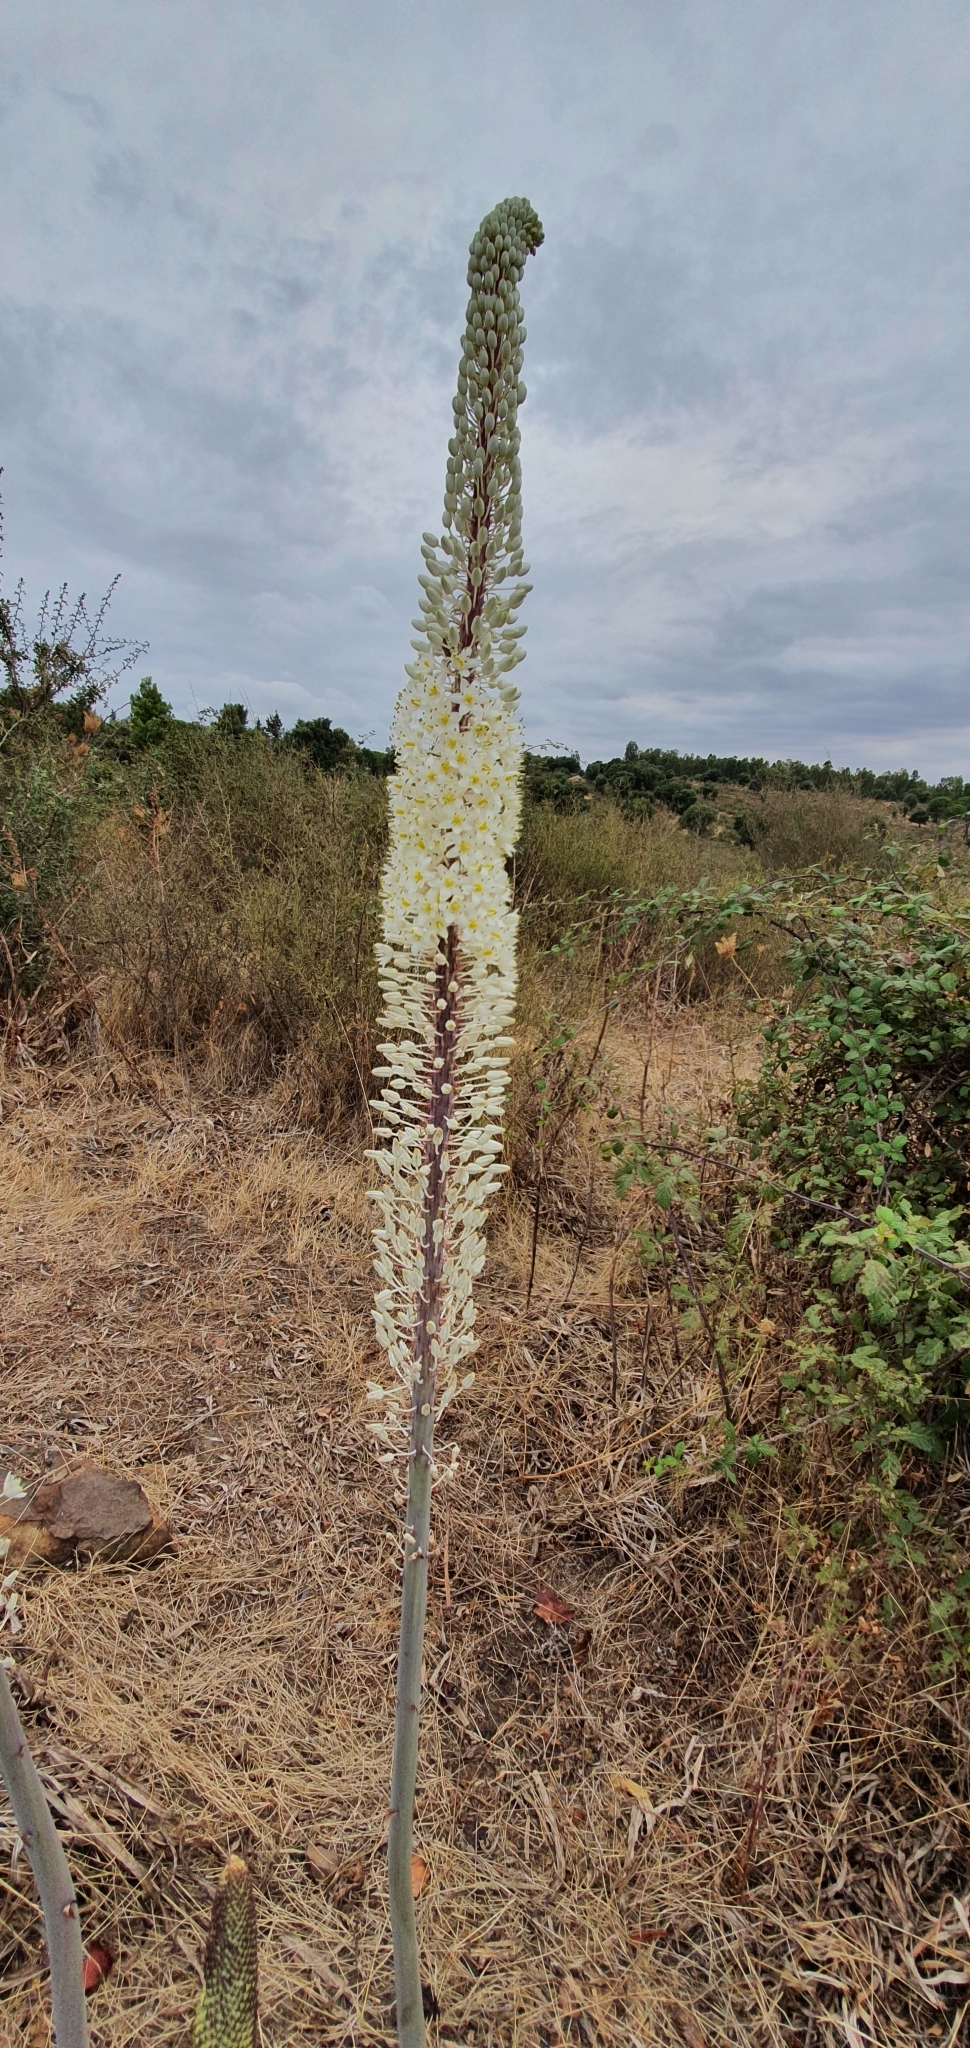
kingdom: Plantae
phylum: Tracheophyta
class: Liliopsida
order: Asparagales
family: Asparagaceae
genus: Drimia
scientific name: Drimia numidica
